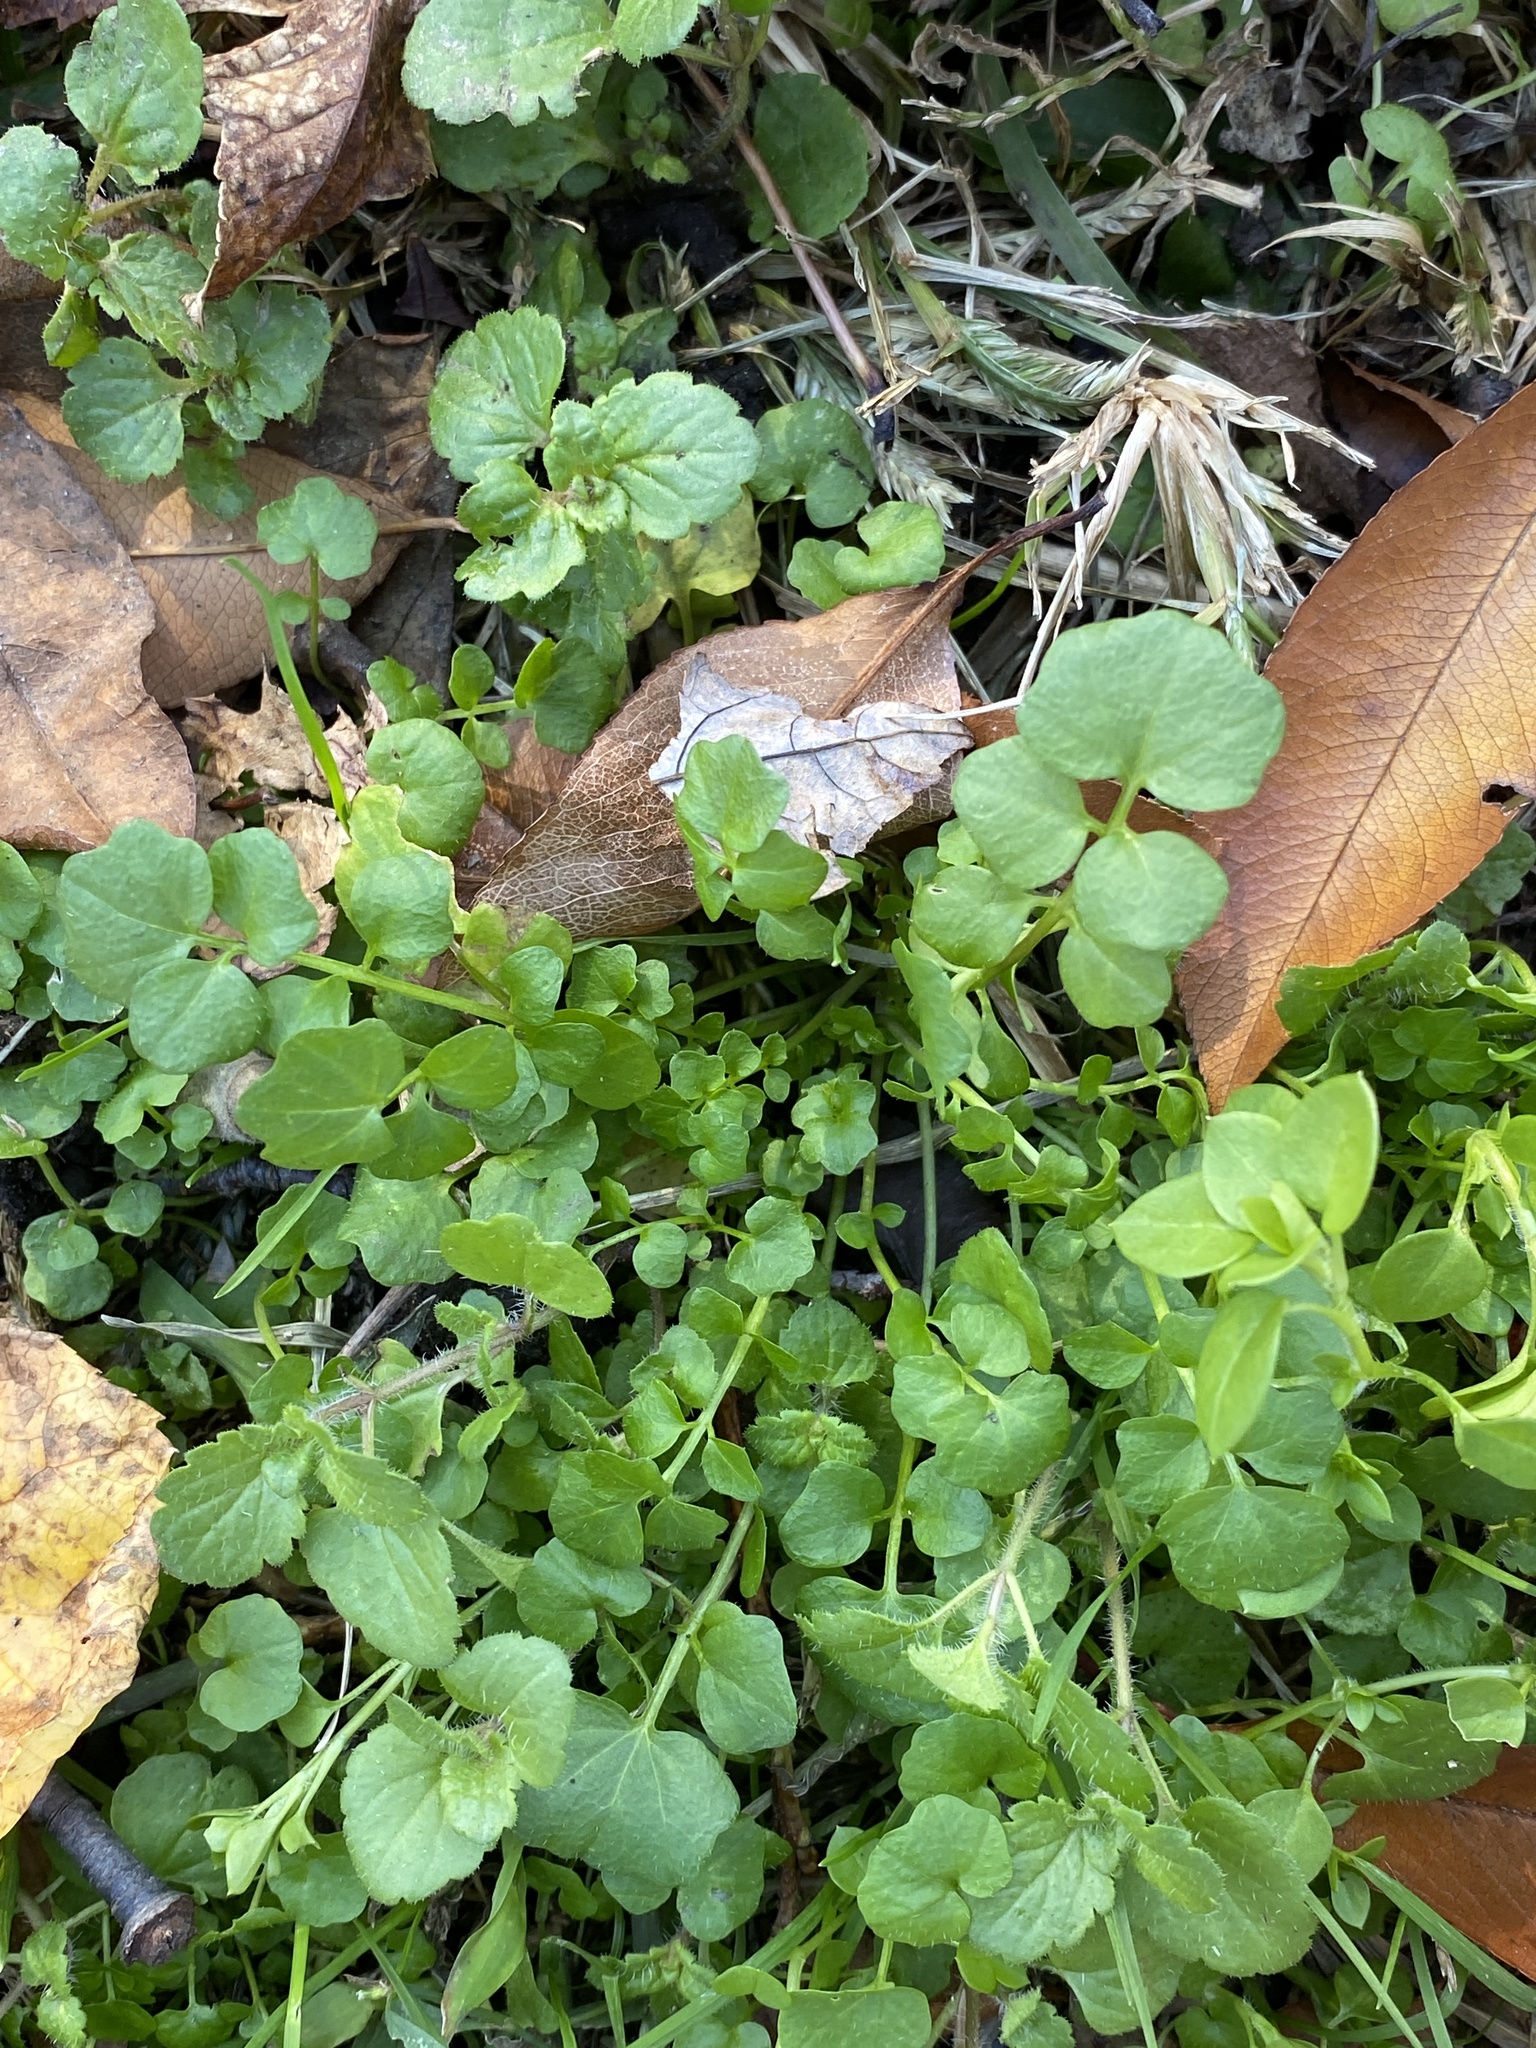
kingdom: Plantae
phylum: Tracheophyta
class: Magnoliopsida
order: Brassicales
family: Brassicaceae
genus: Cardamine
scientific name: Cardamine hirsuta
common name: Hairy bittercress
